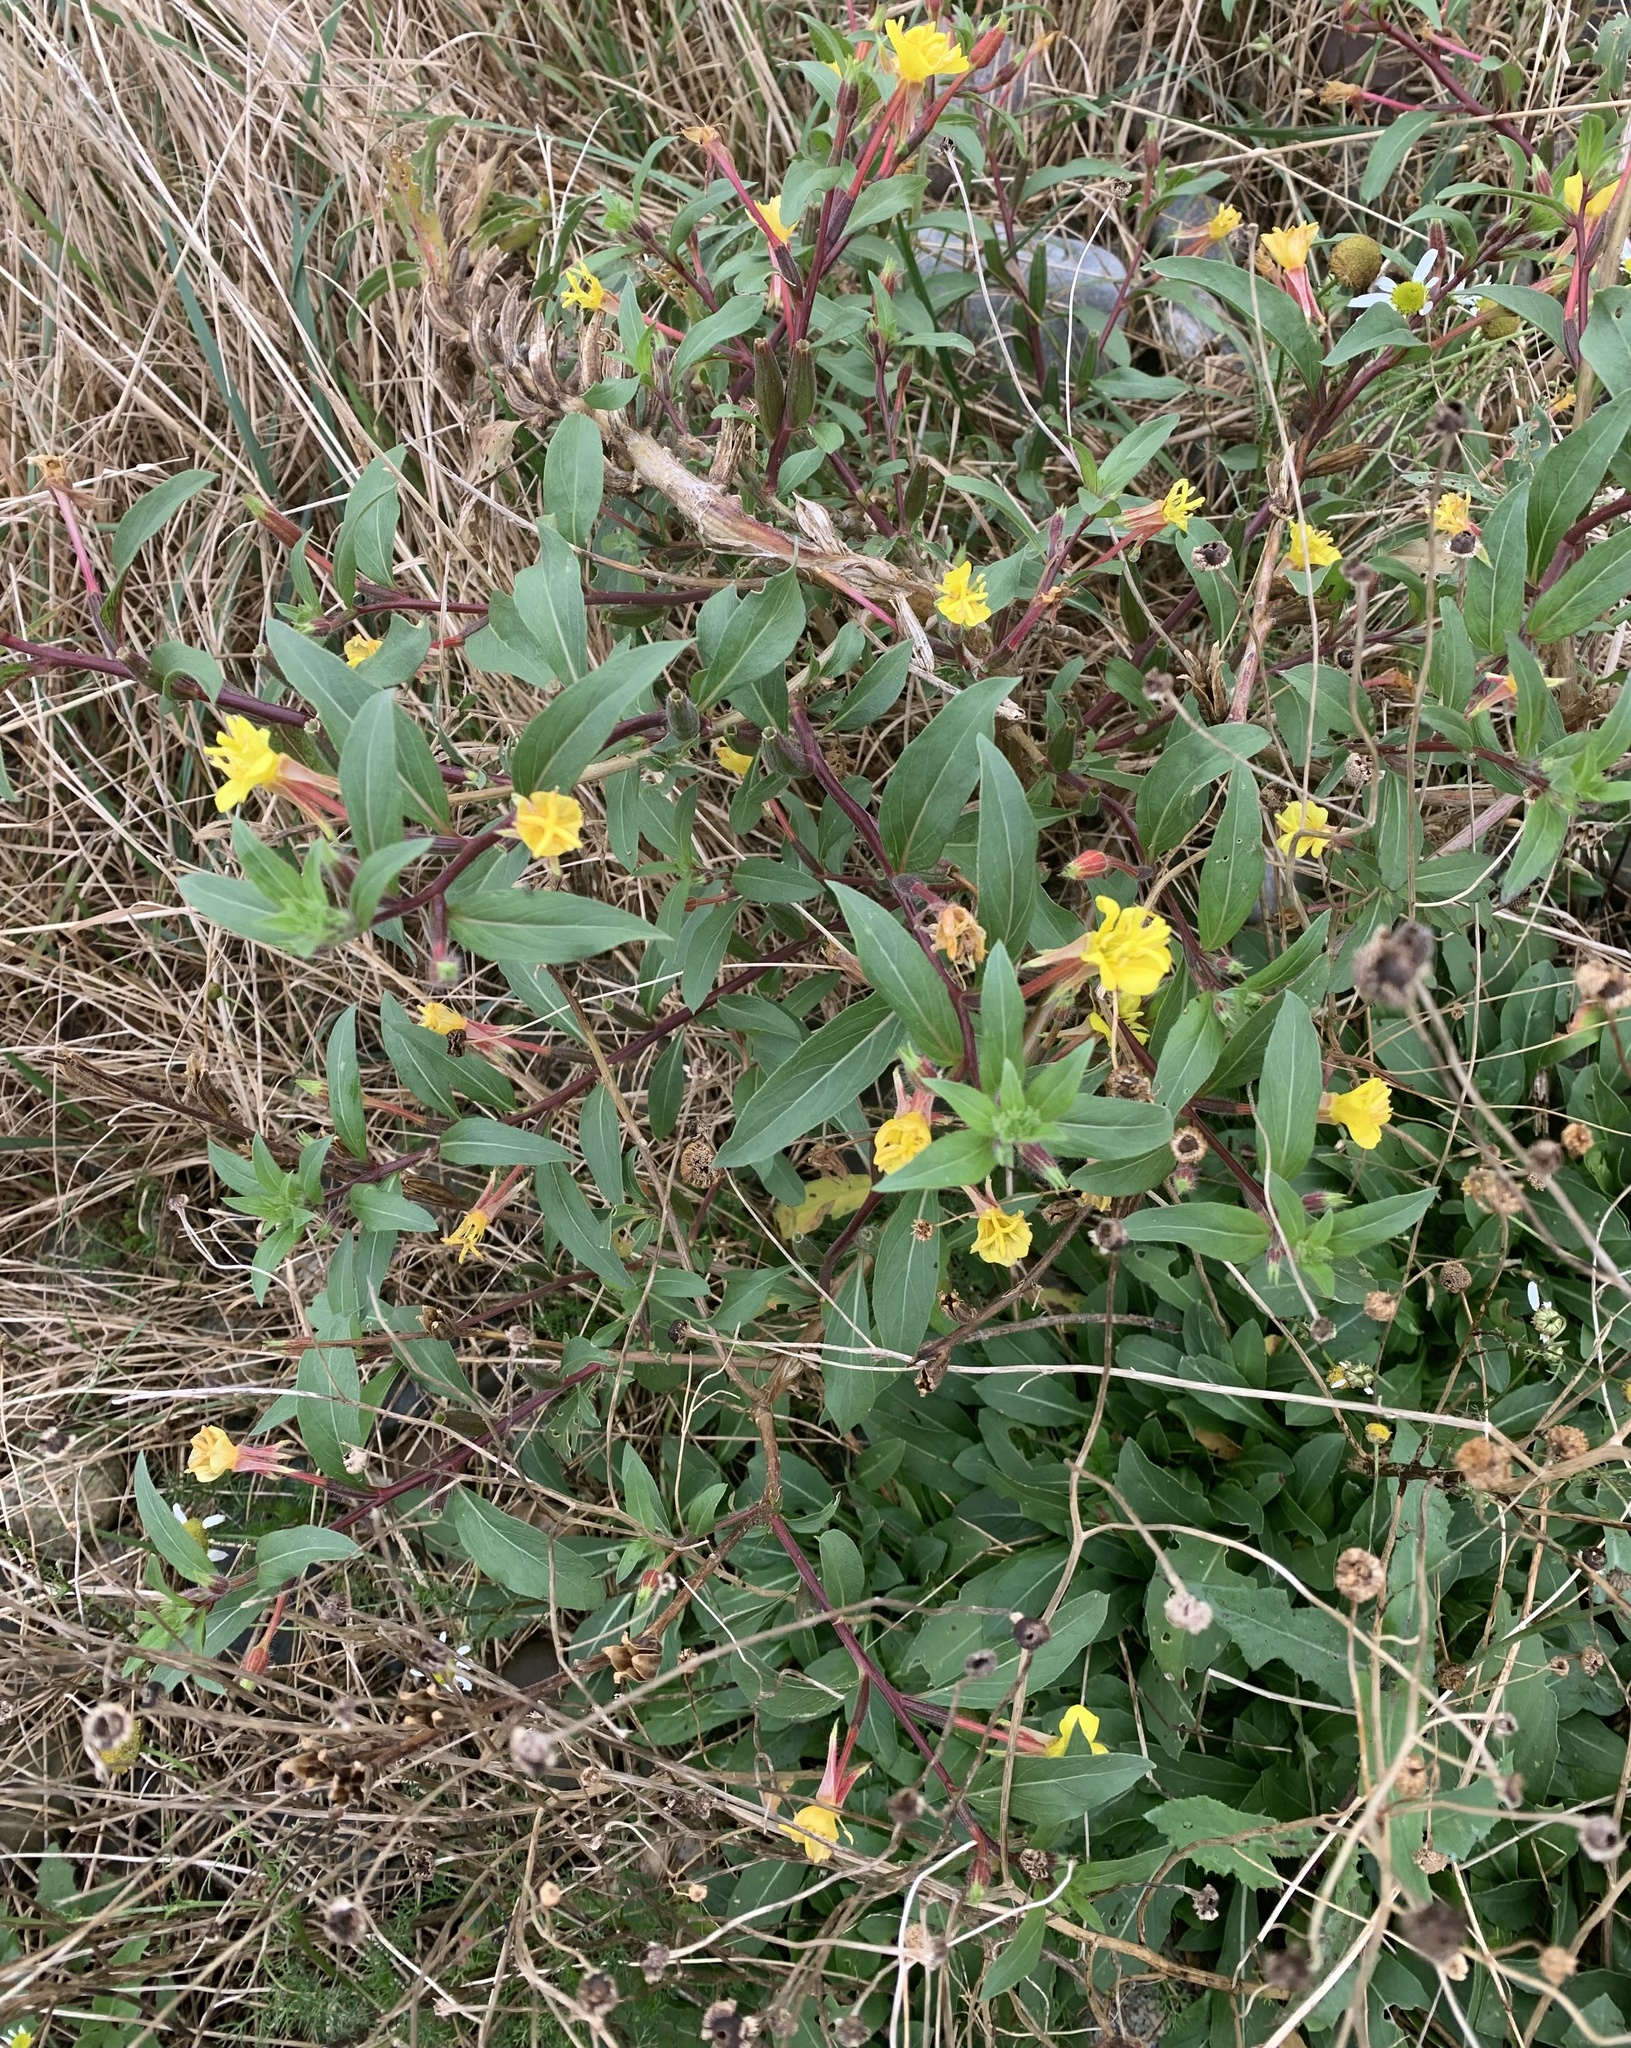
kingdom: Plantae
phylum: Tracheophyta
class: Magnoliopsida
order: Myrtales
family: Onagraceae
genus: Oenothera
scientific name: Oenothera parviflora
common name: Least evening-primrose
